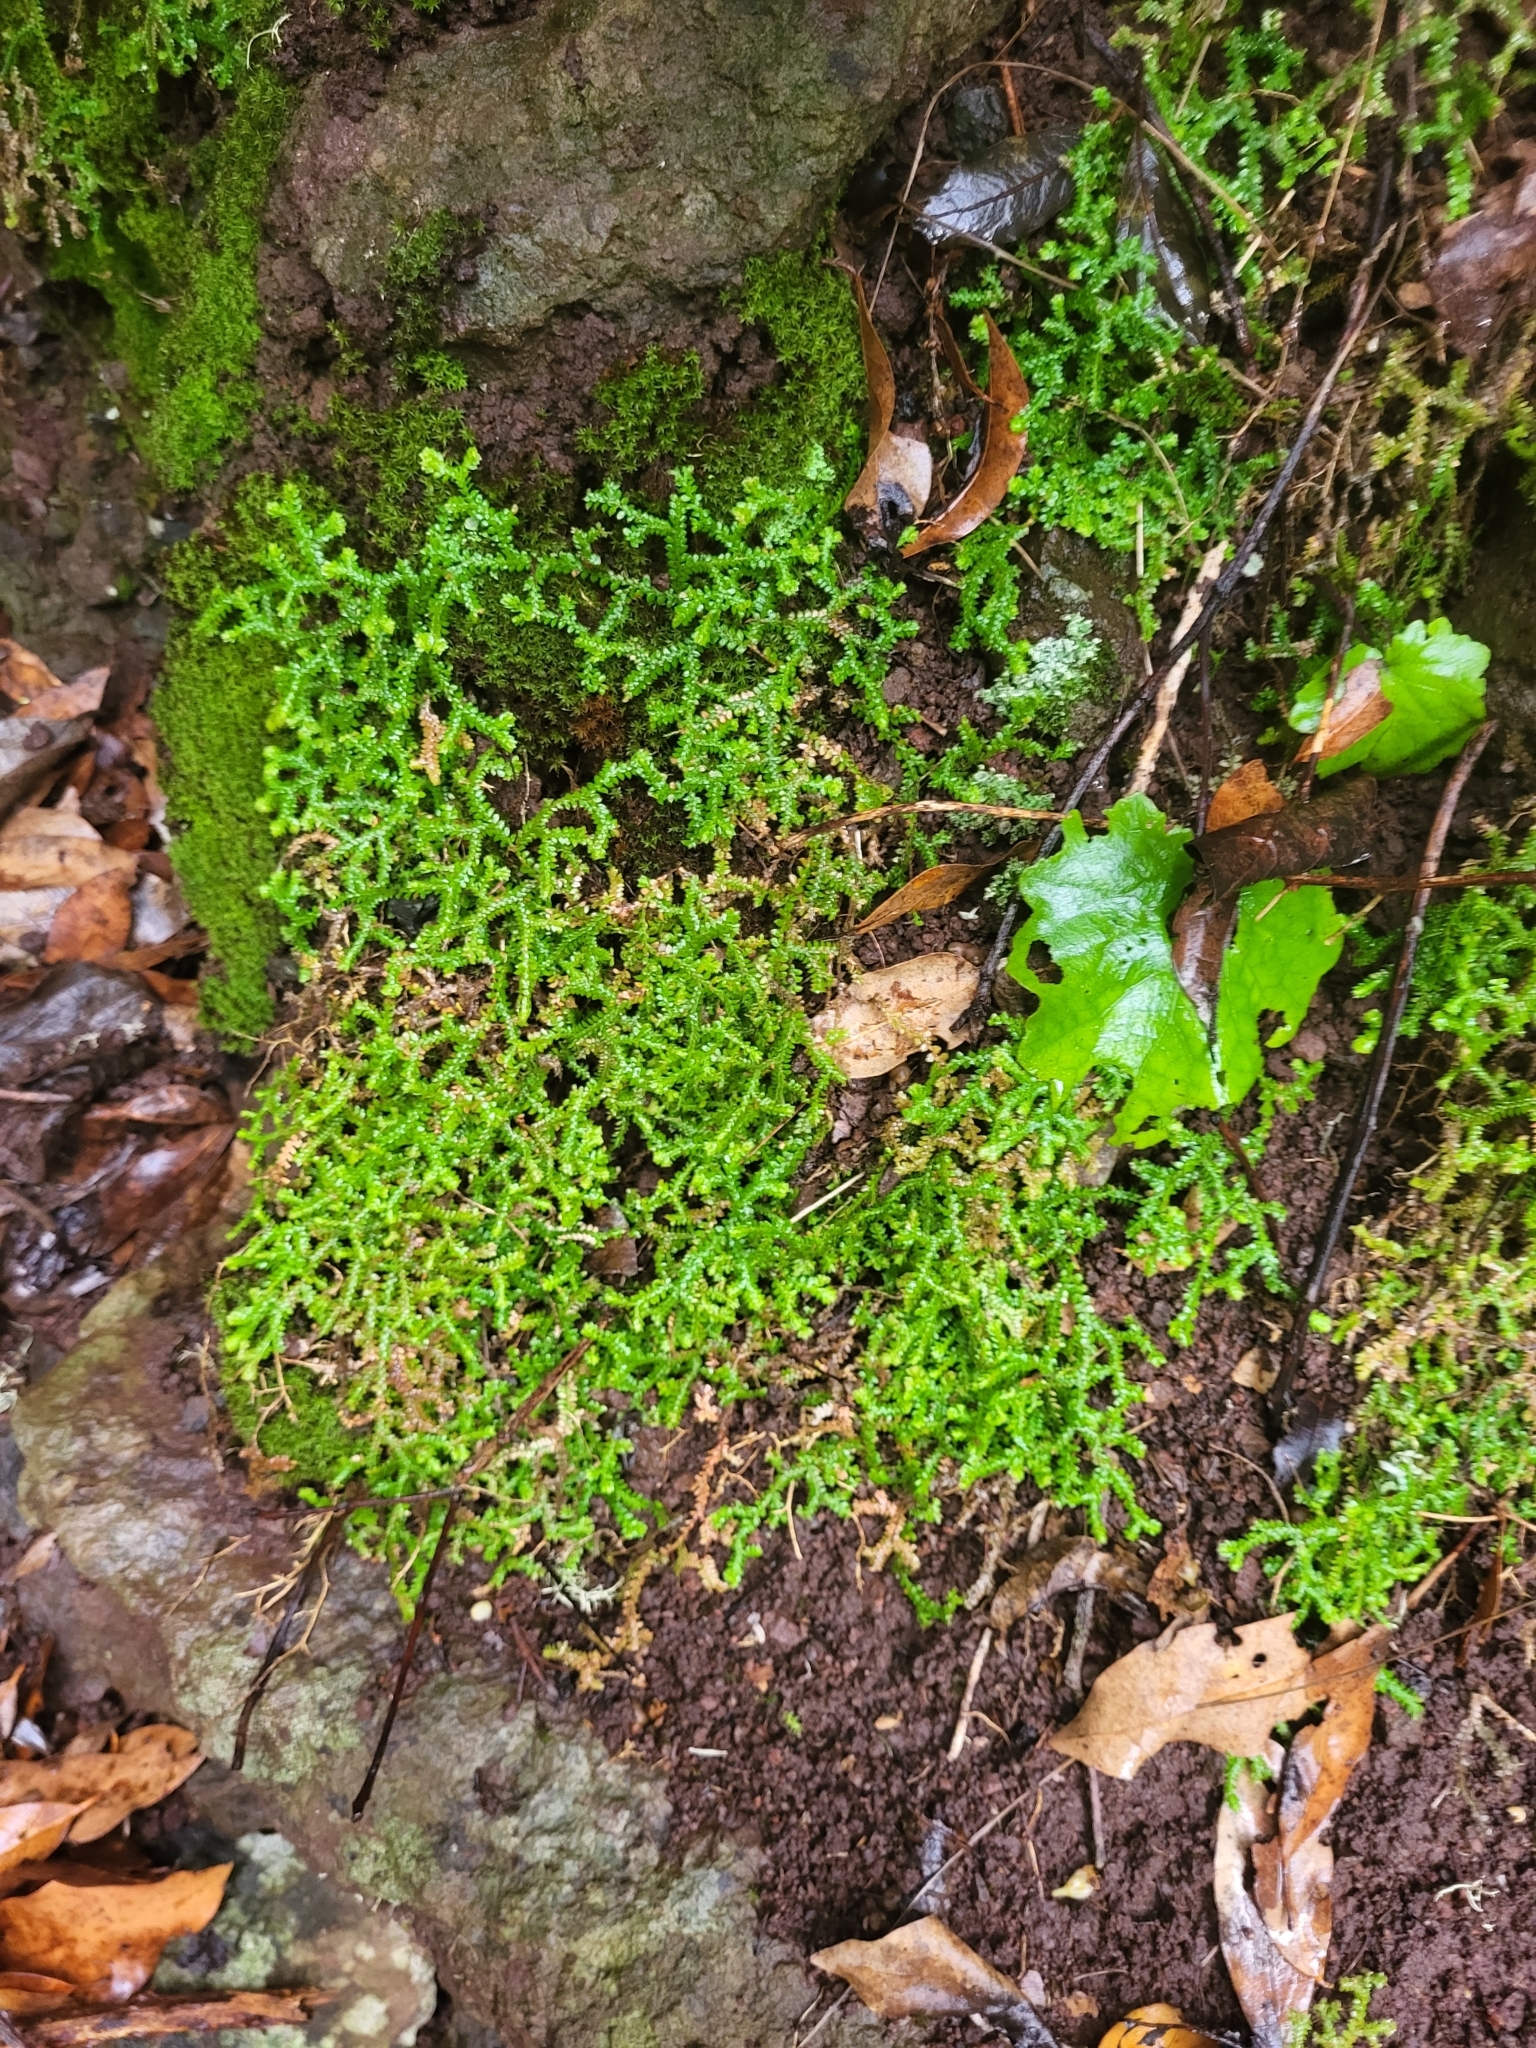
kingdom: Plantae
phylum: Tracheophyta
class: Lycopodiopsida
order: Selaginellales
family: Selaginellaceae
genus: Selaginella
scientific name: Selaginella denticulata
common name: Toothed-leaved clubmoss
